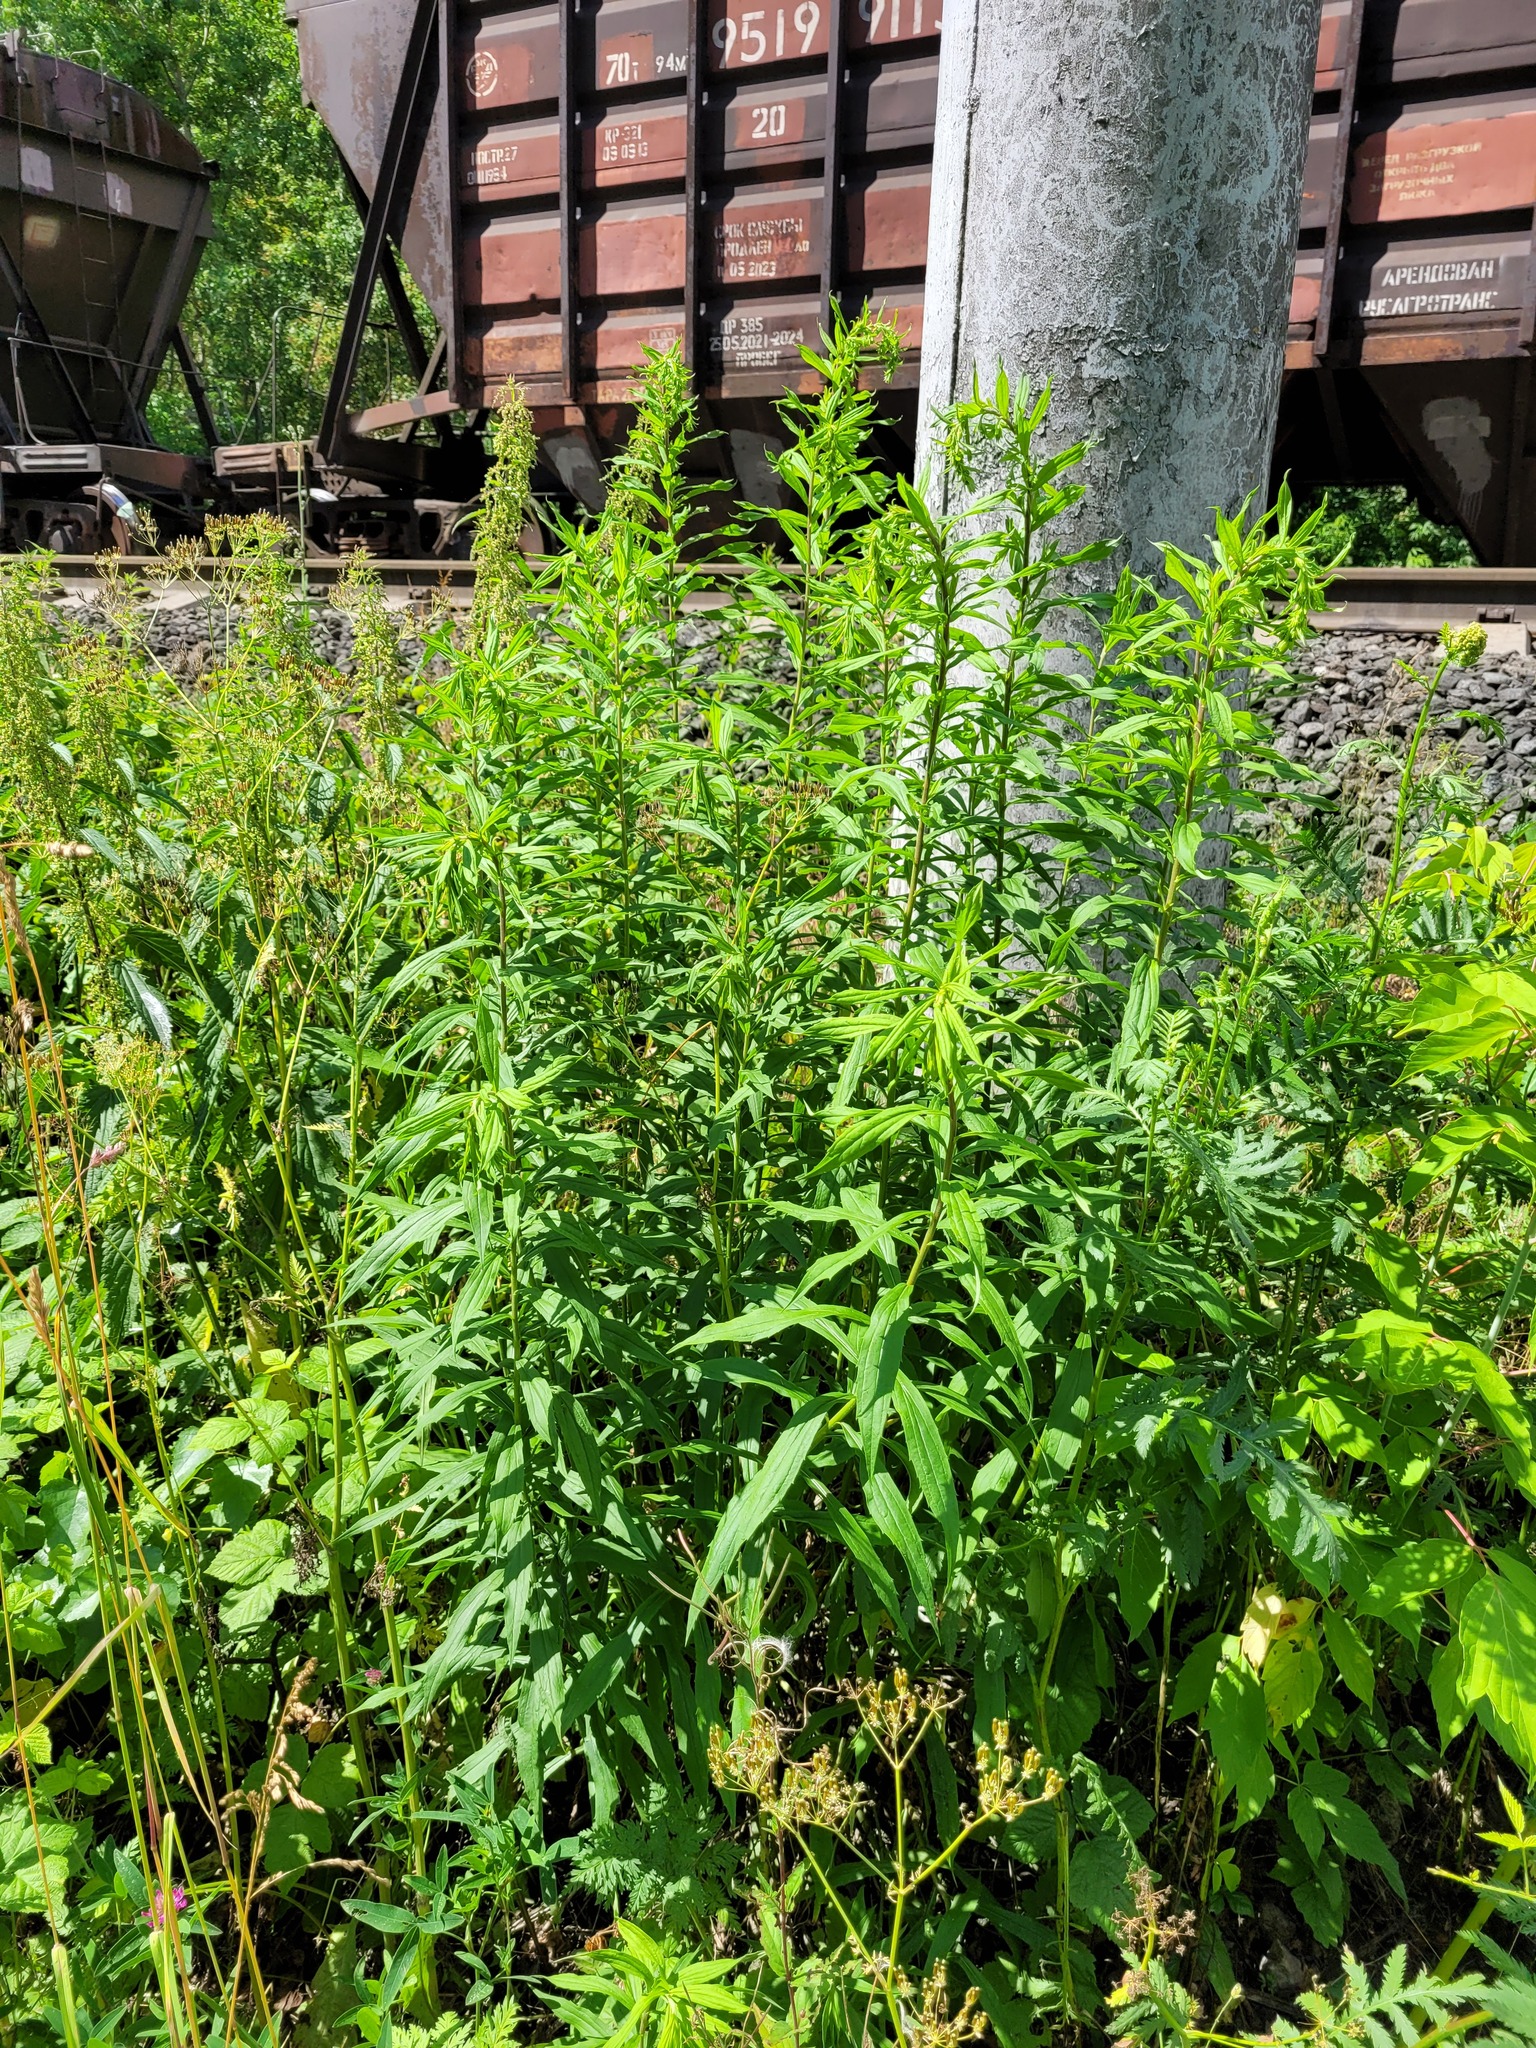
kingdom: Plantae
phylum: Tracheophyta
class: Magnoliopsida
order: Asterales
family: Asteraceae
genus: Solidago
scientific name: Solidago canadensis
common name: Canada goldenrod
